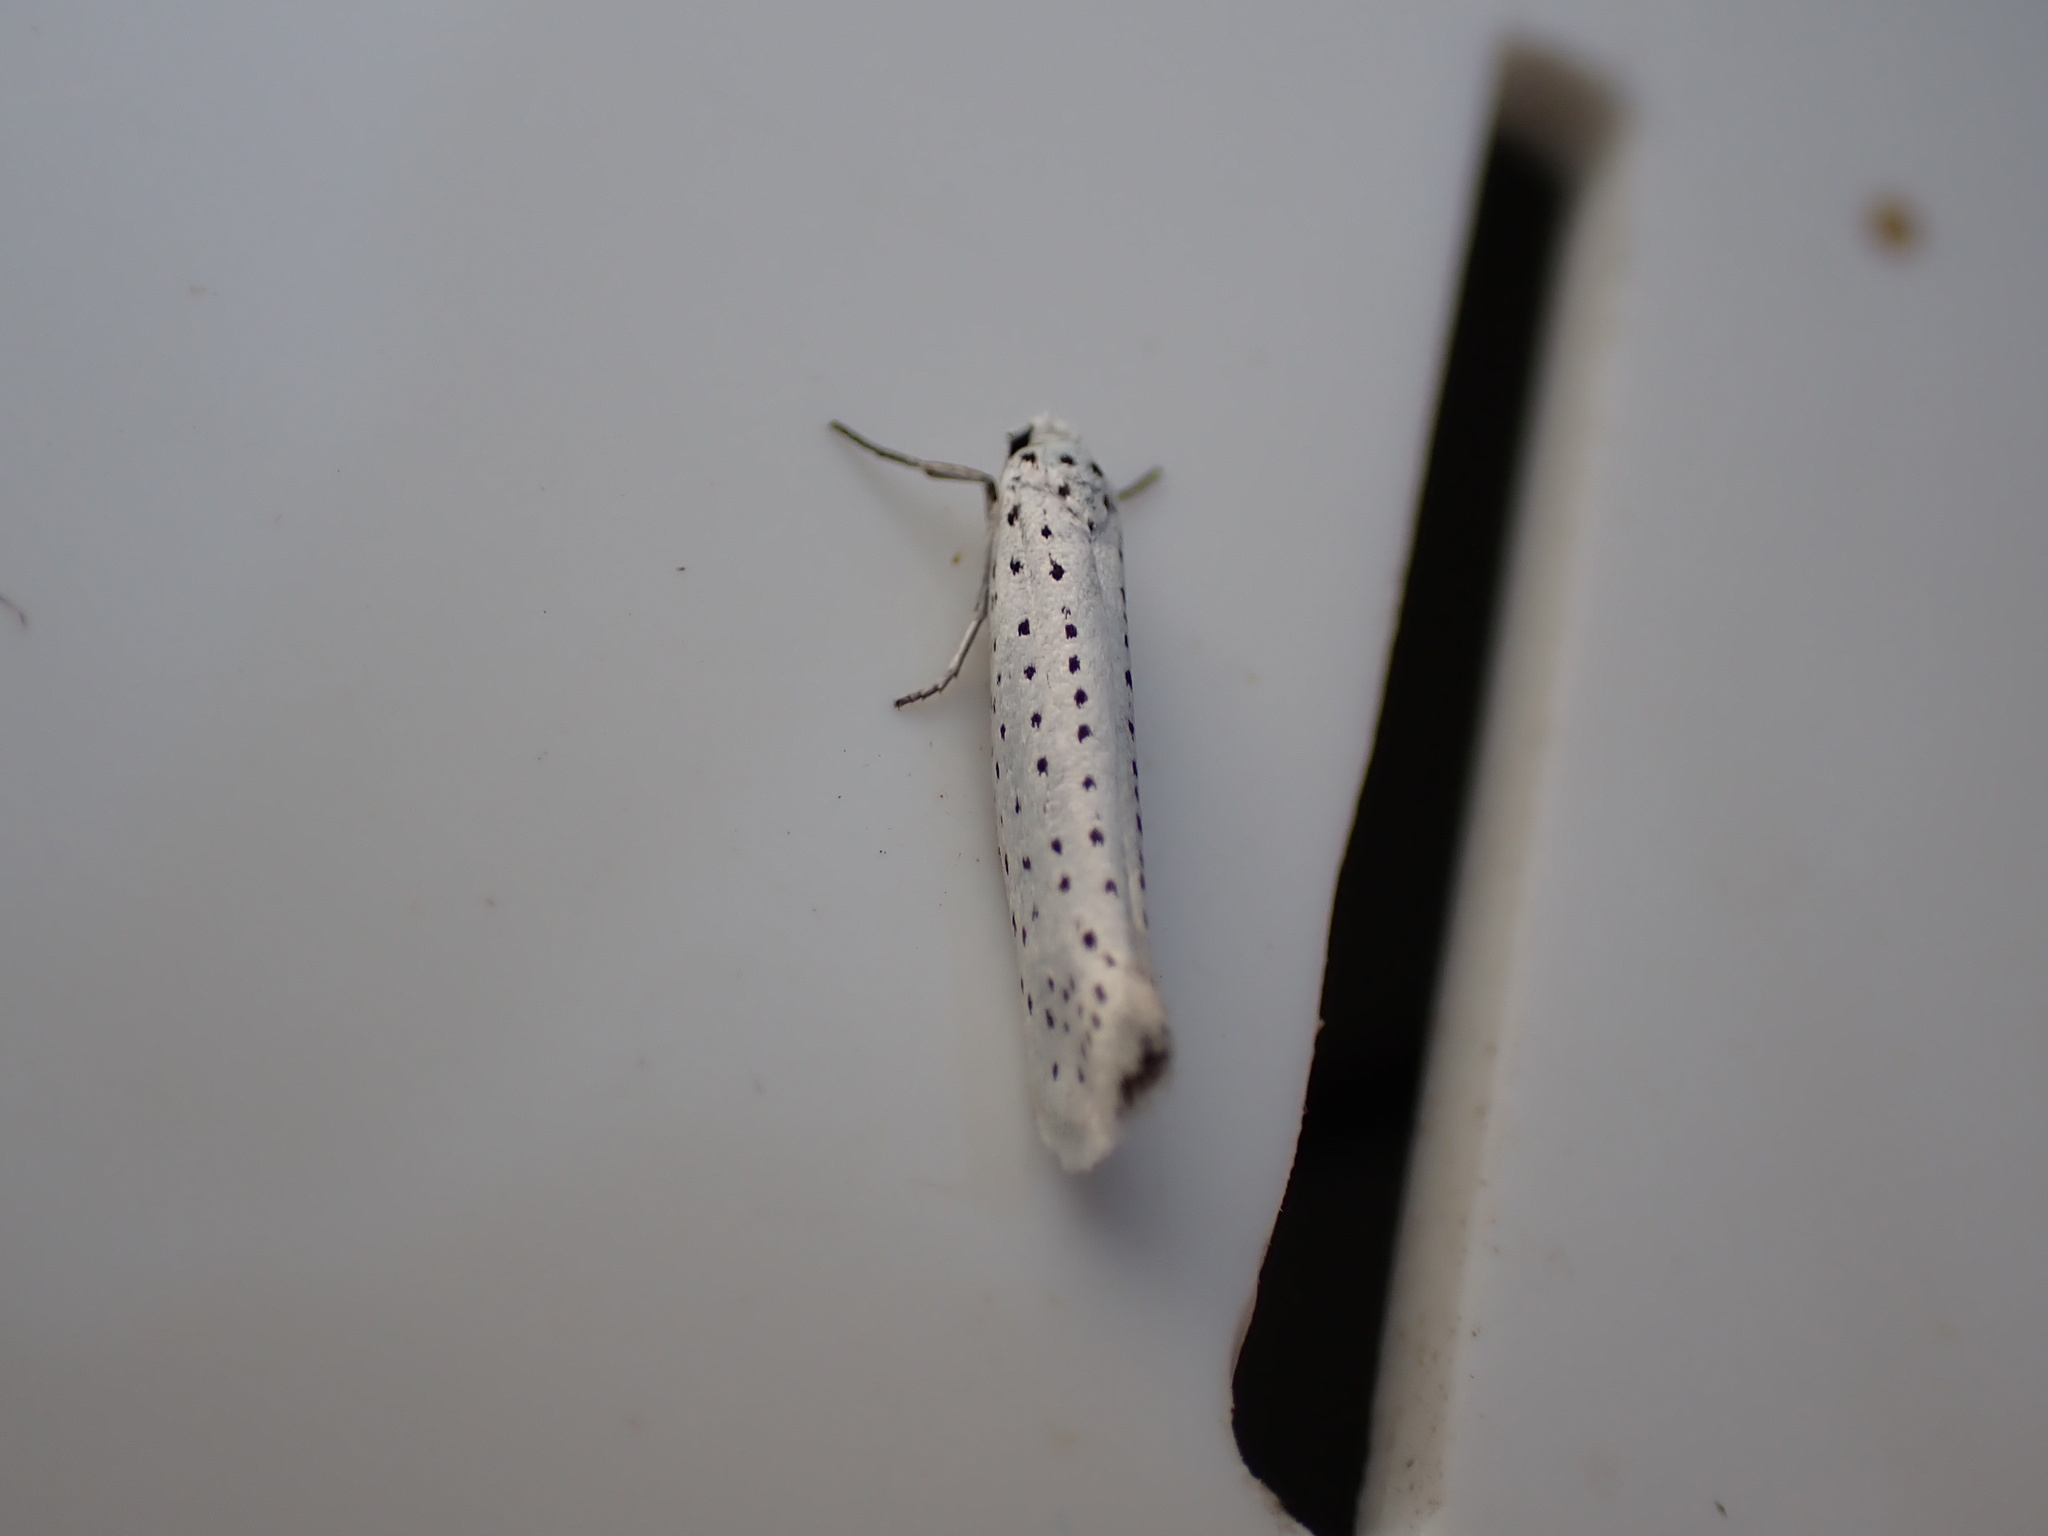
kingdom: Animalia
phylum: Arthropoda
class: Insecta
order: Lepidoptera
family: Yponomeutidae
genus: Yponomeuta
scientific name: Yponomeuta evonymella
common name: Bird-cherry ermine
